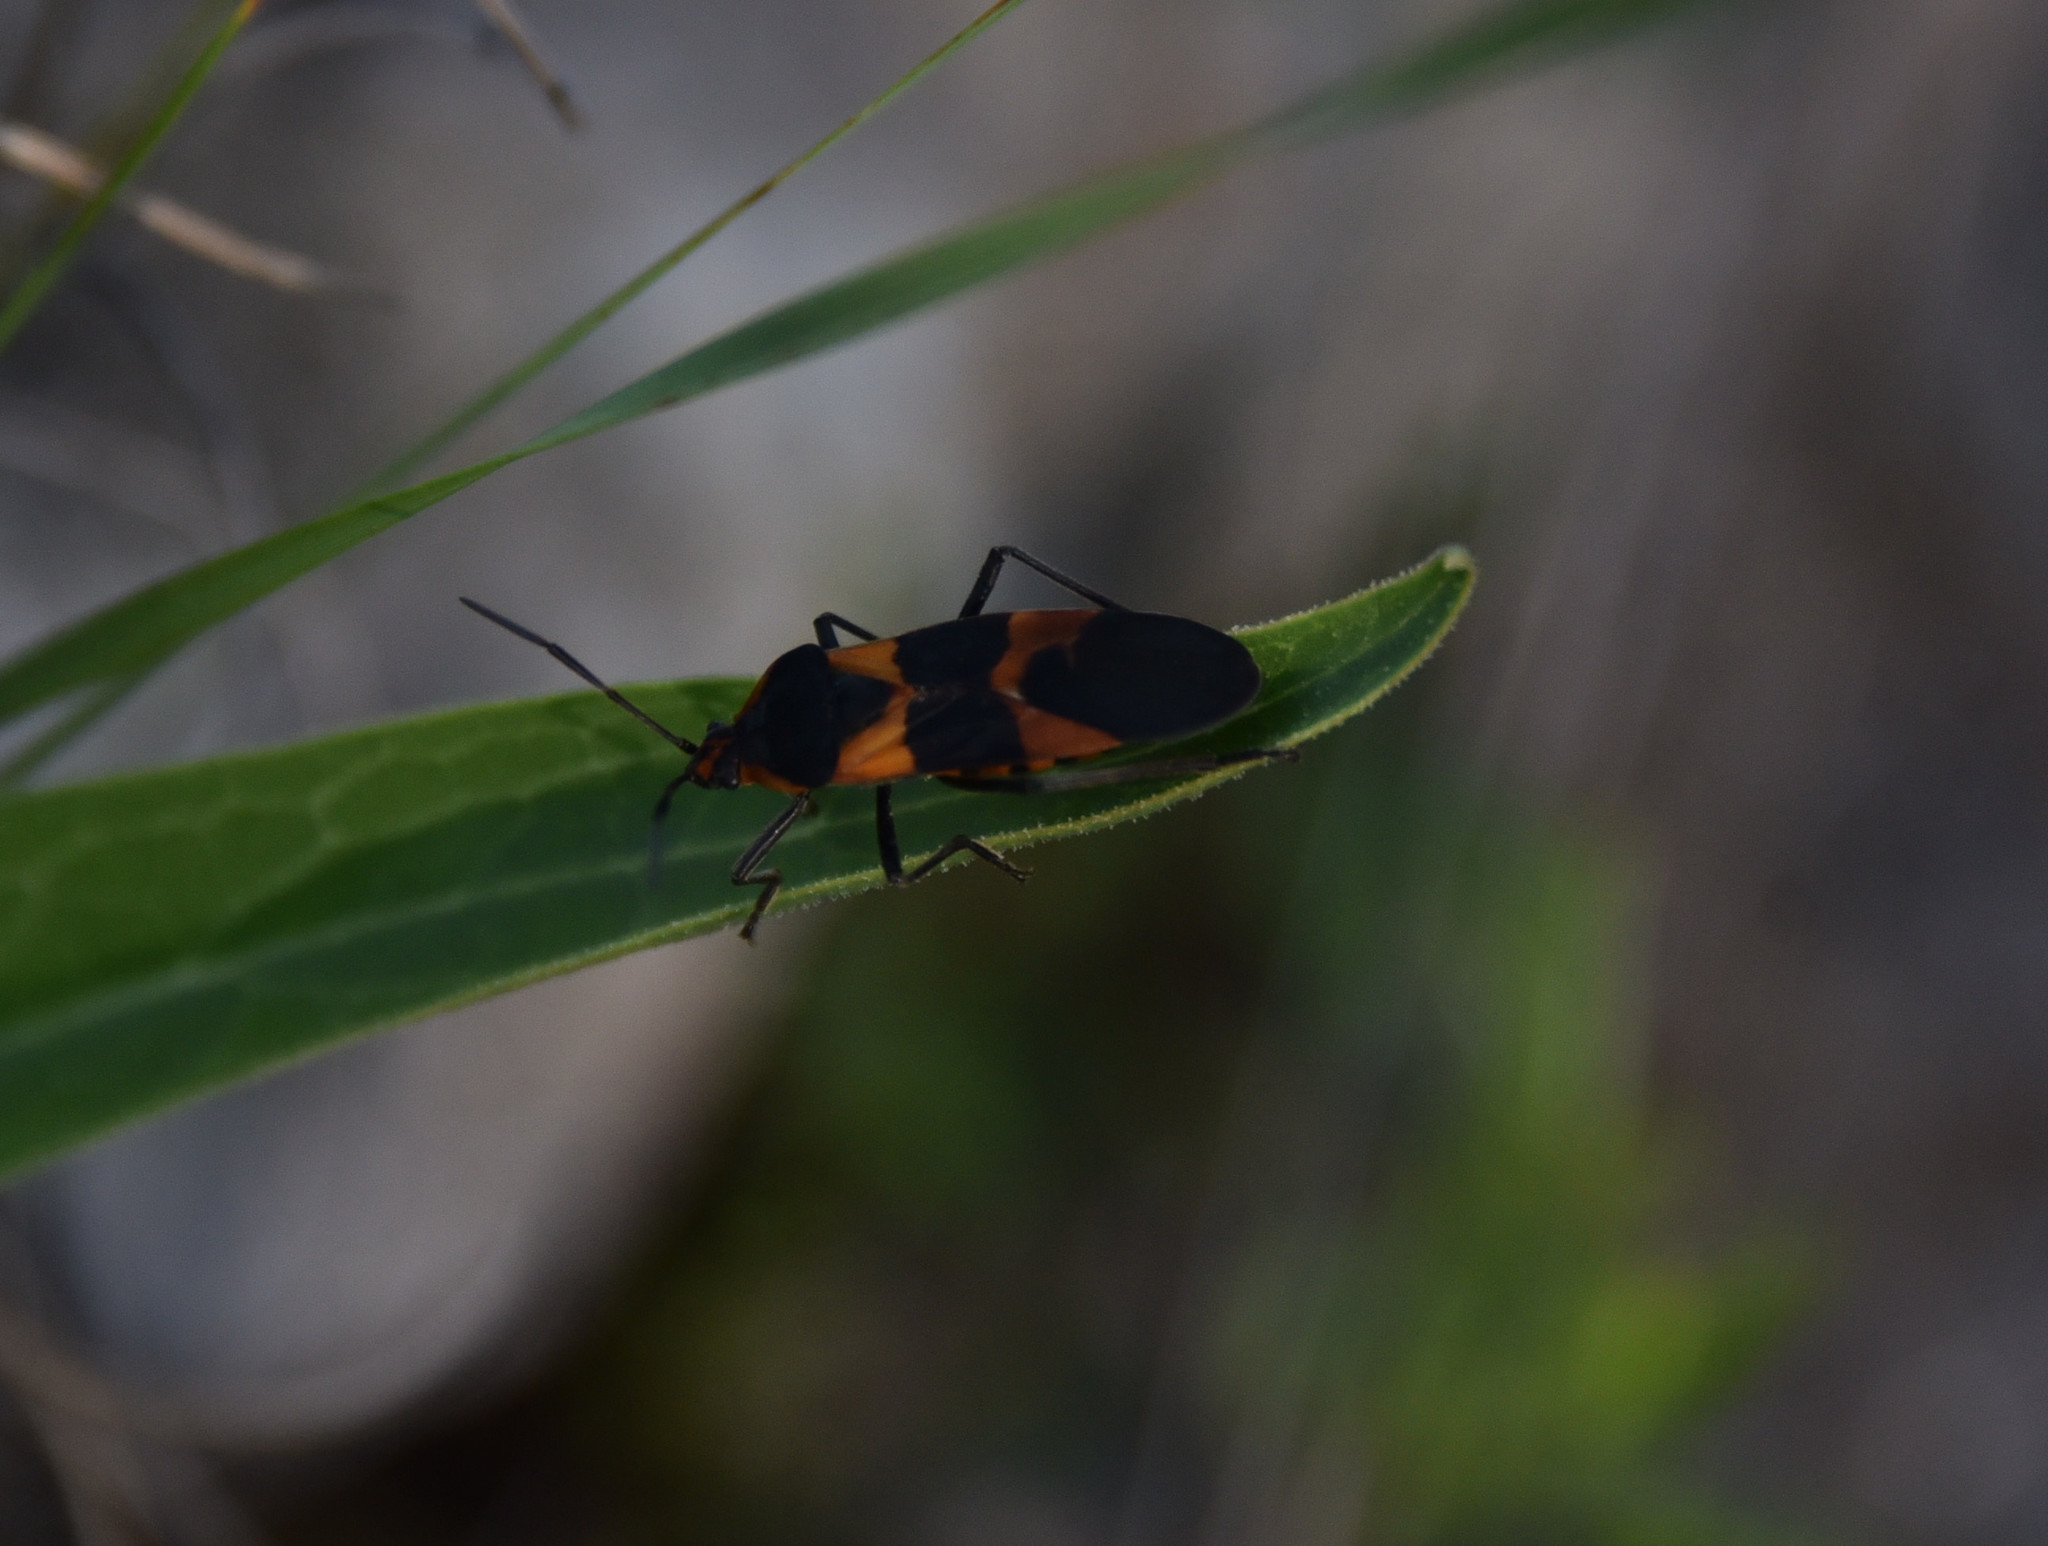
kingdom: Animalia
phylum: Arthropoda
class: Insecta
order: Hemiptera
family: Lygaeidae
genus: Oncopeltus
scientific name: Oncopeltus fasciatus
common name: Large milkweed bug
